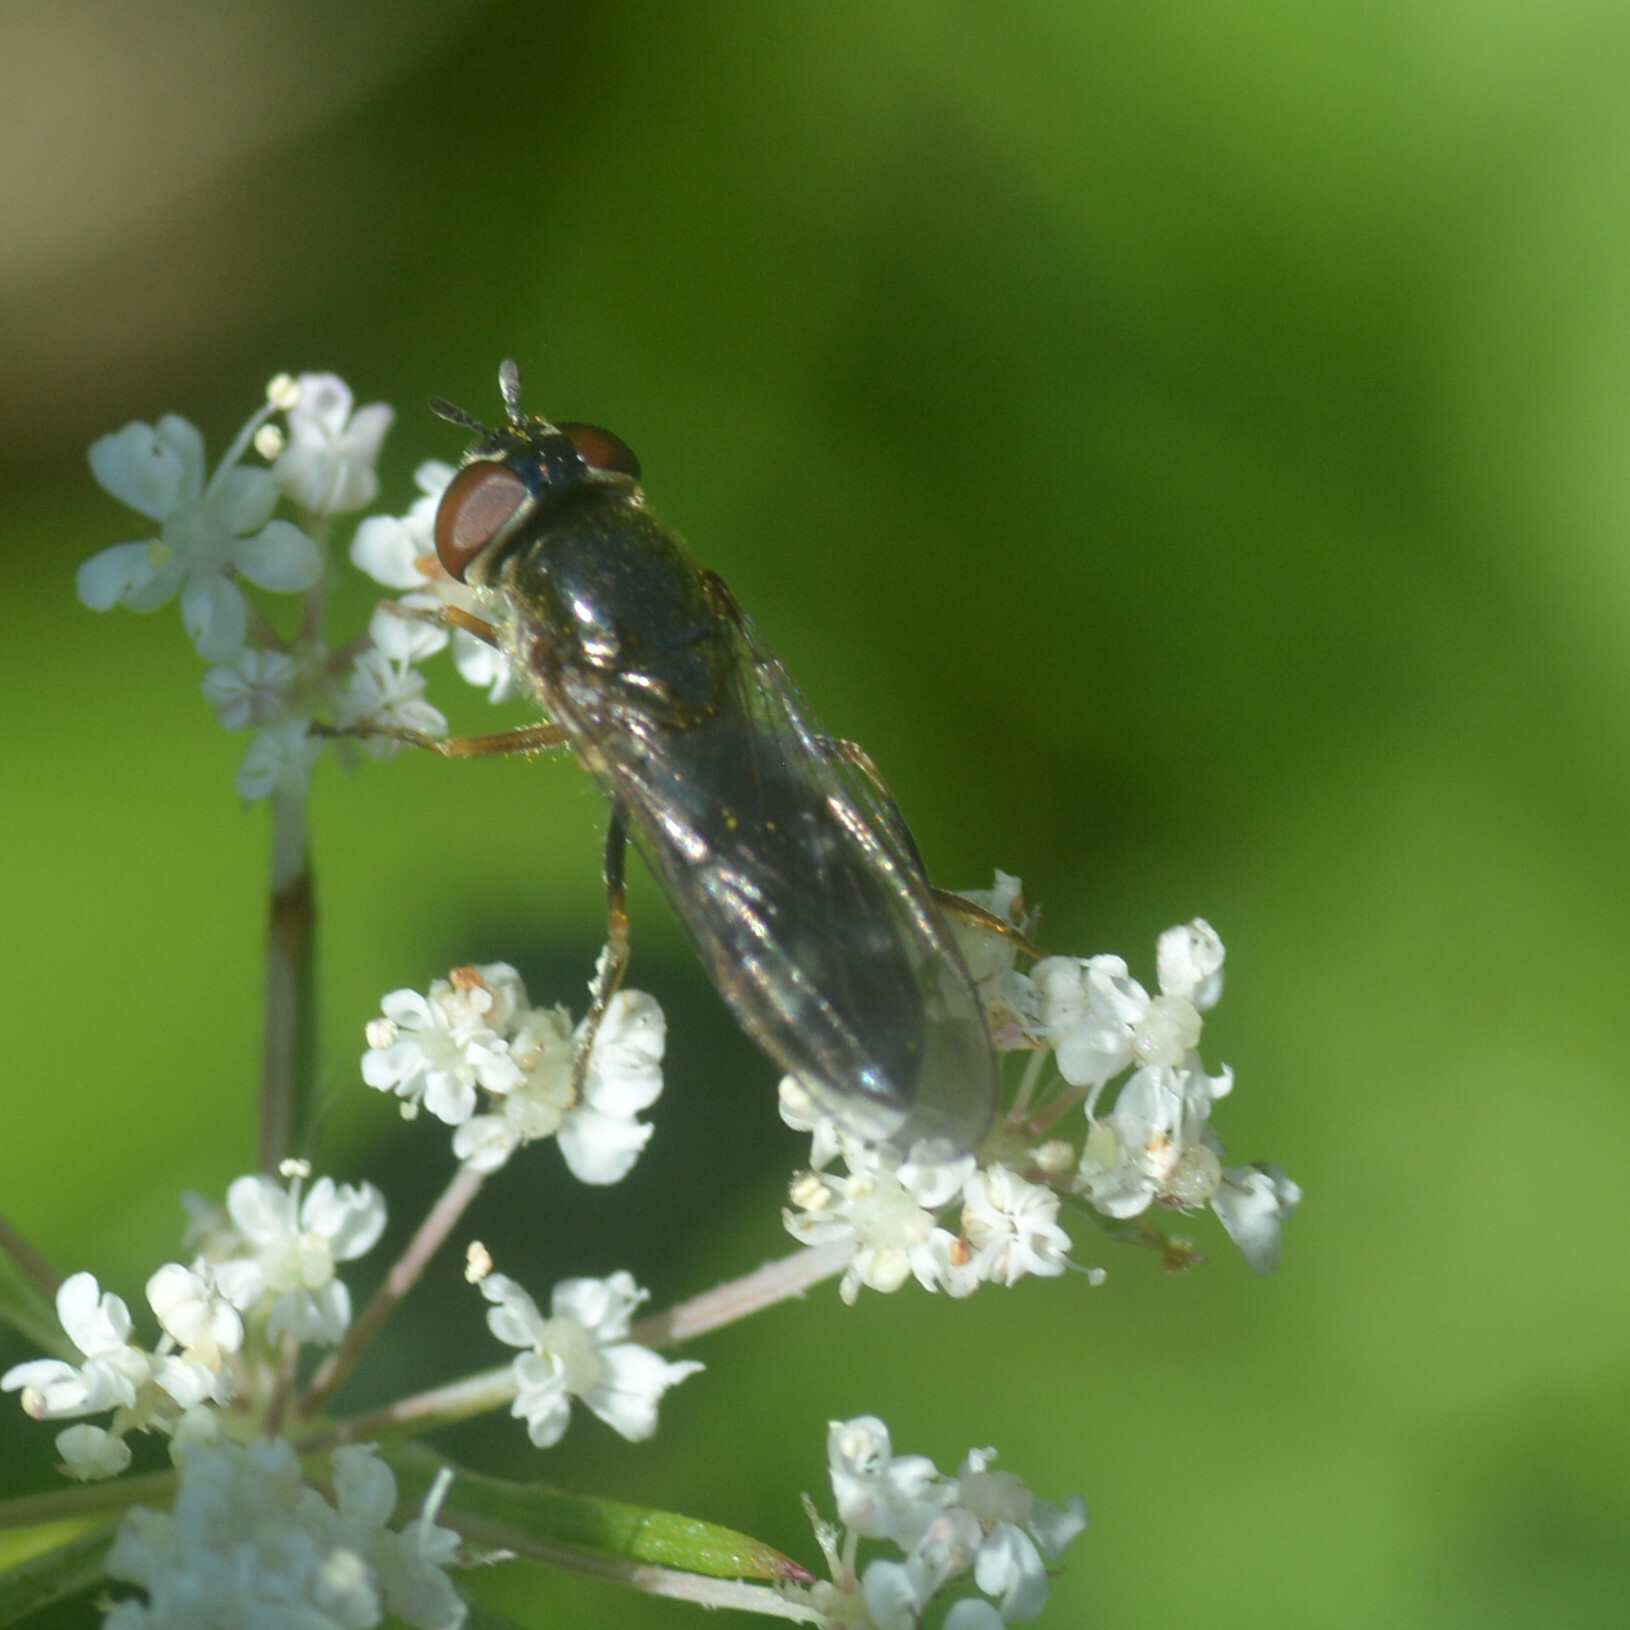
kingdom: Animalia
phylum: Arthropoda
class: Insecta
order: Diptera
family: Syrphidae
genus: Platycheirus
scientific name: Platycheirus albimanus
